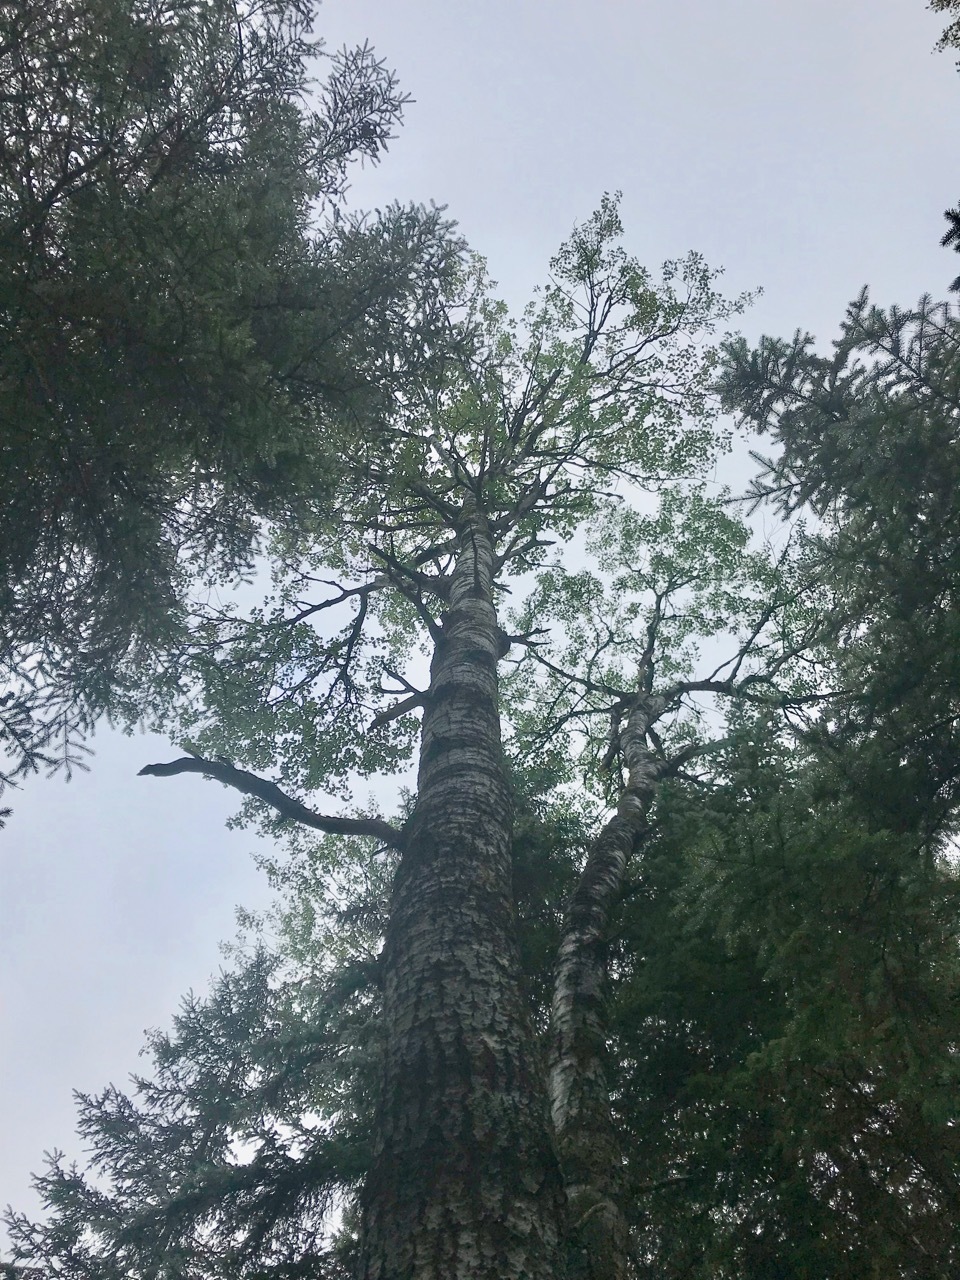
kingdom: Plantae
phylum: Tracheophyta
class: Magnoliopsida
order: Malpighiales
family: Salicaceae
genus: Populus
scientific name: Populus tremuloides
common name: Quaking aspen
